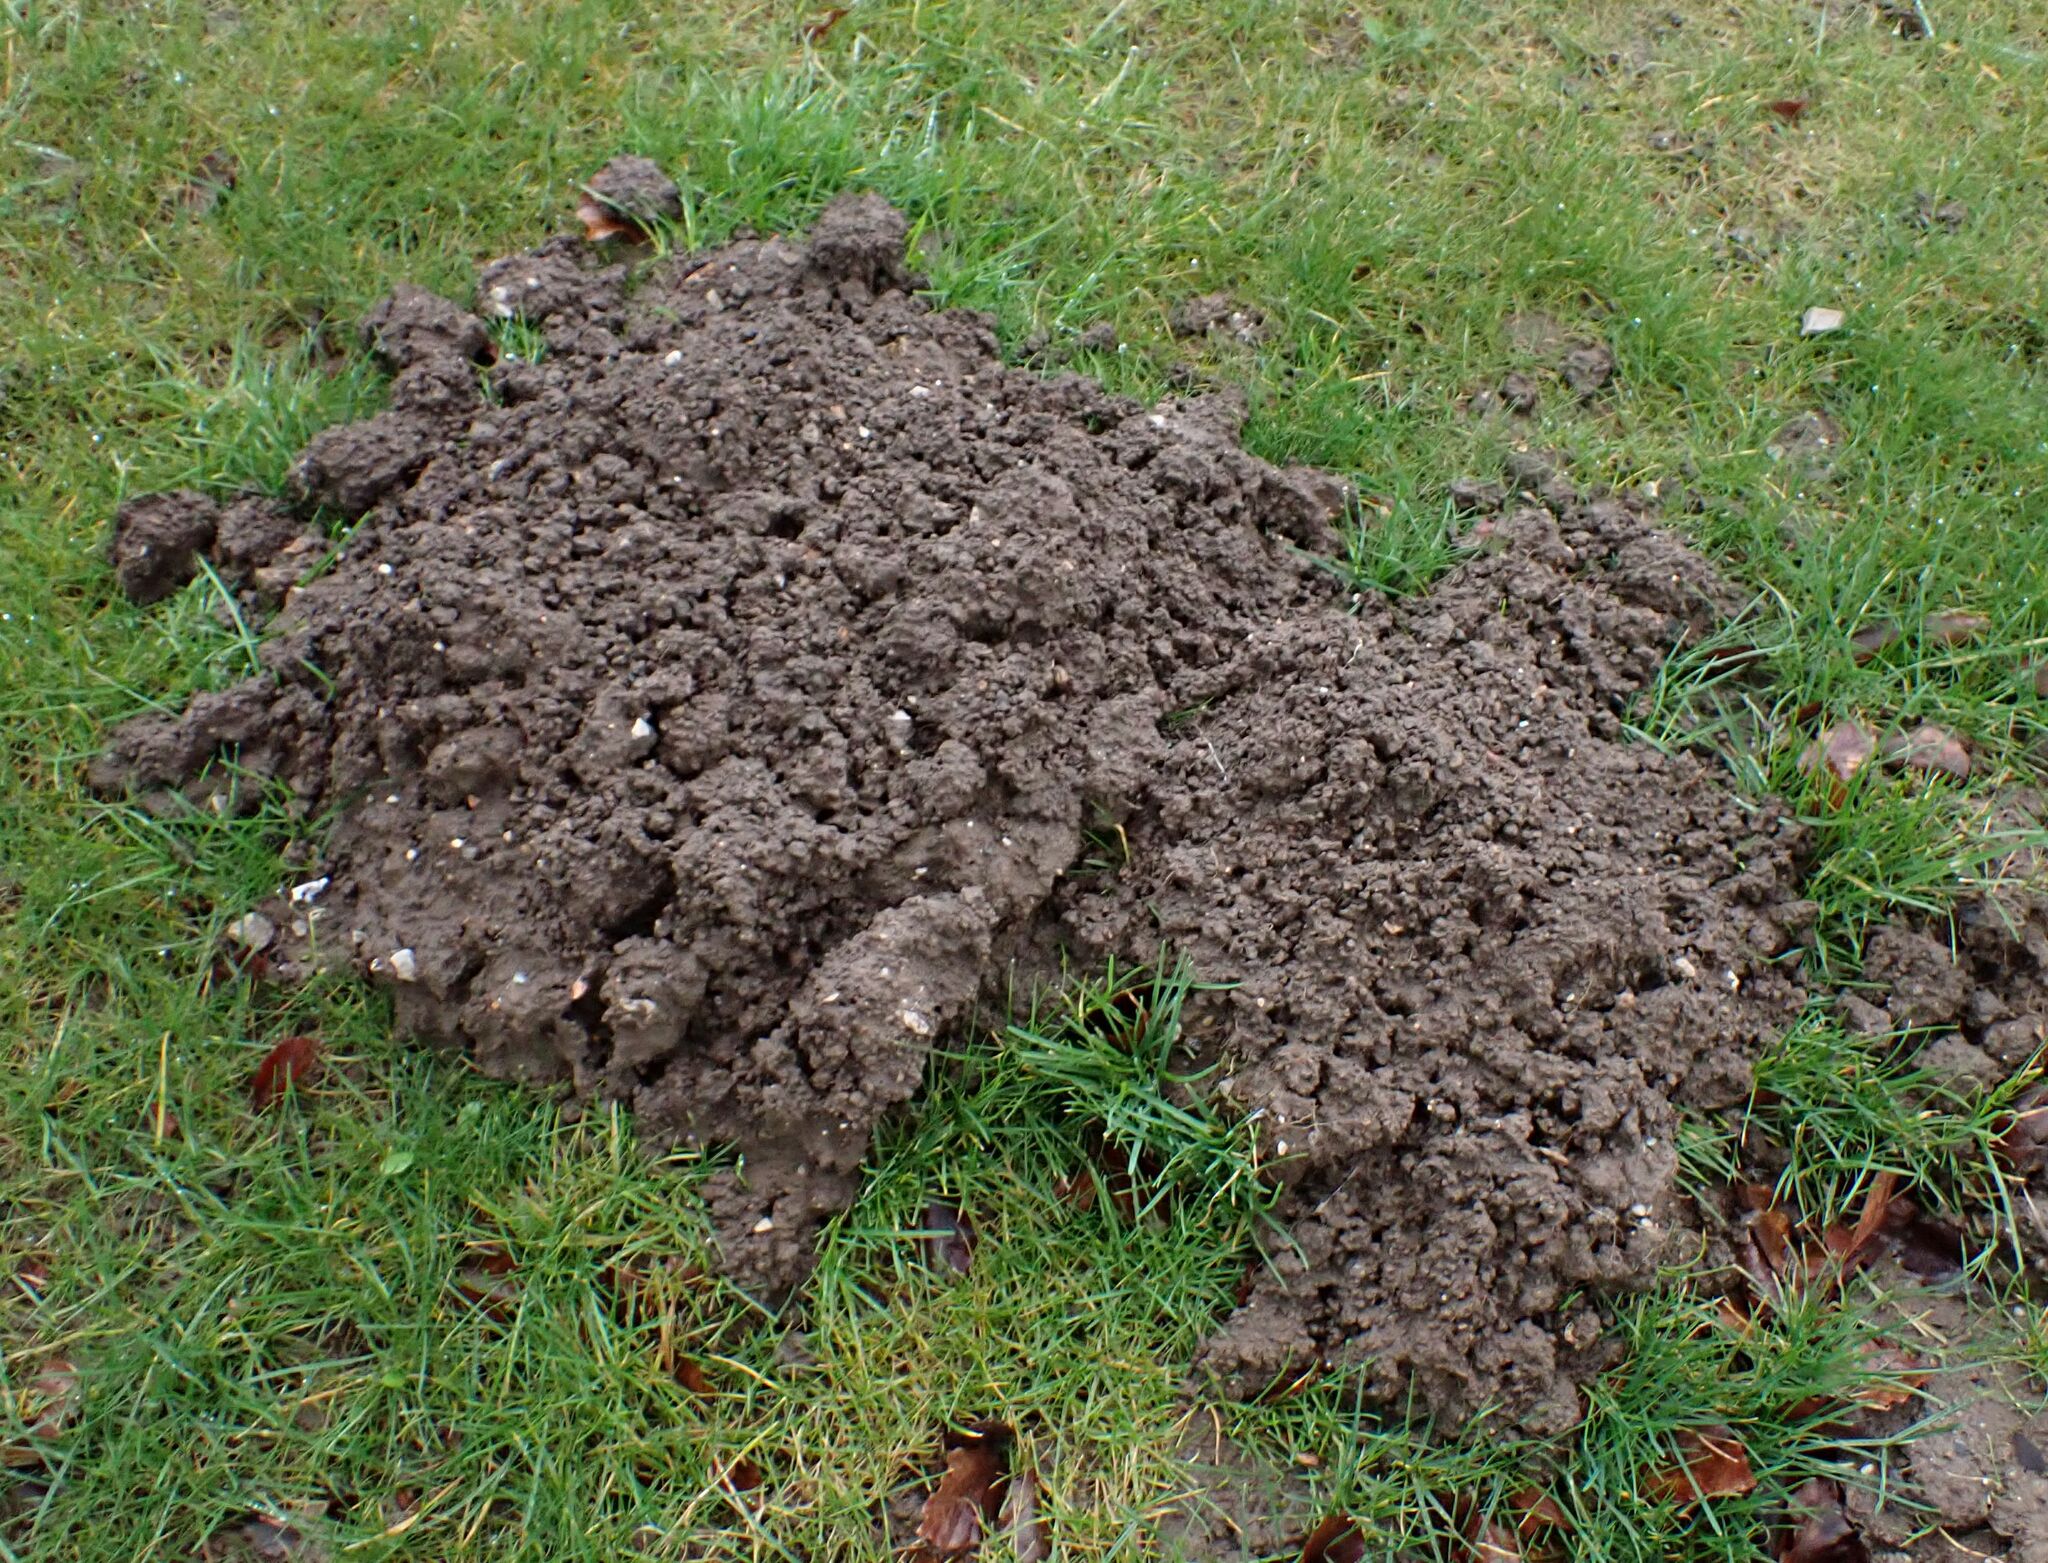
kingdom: Animalia
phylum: Chordata
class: Mammalia
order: Soricomorpha
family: Talpidae
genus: Talpa
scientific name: Talpa europaea
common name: European mole
